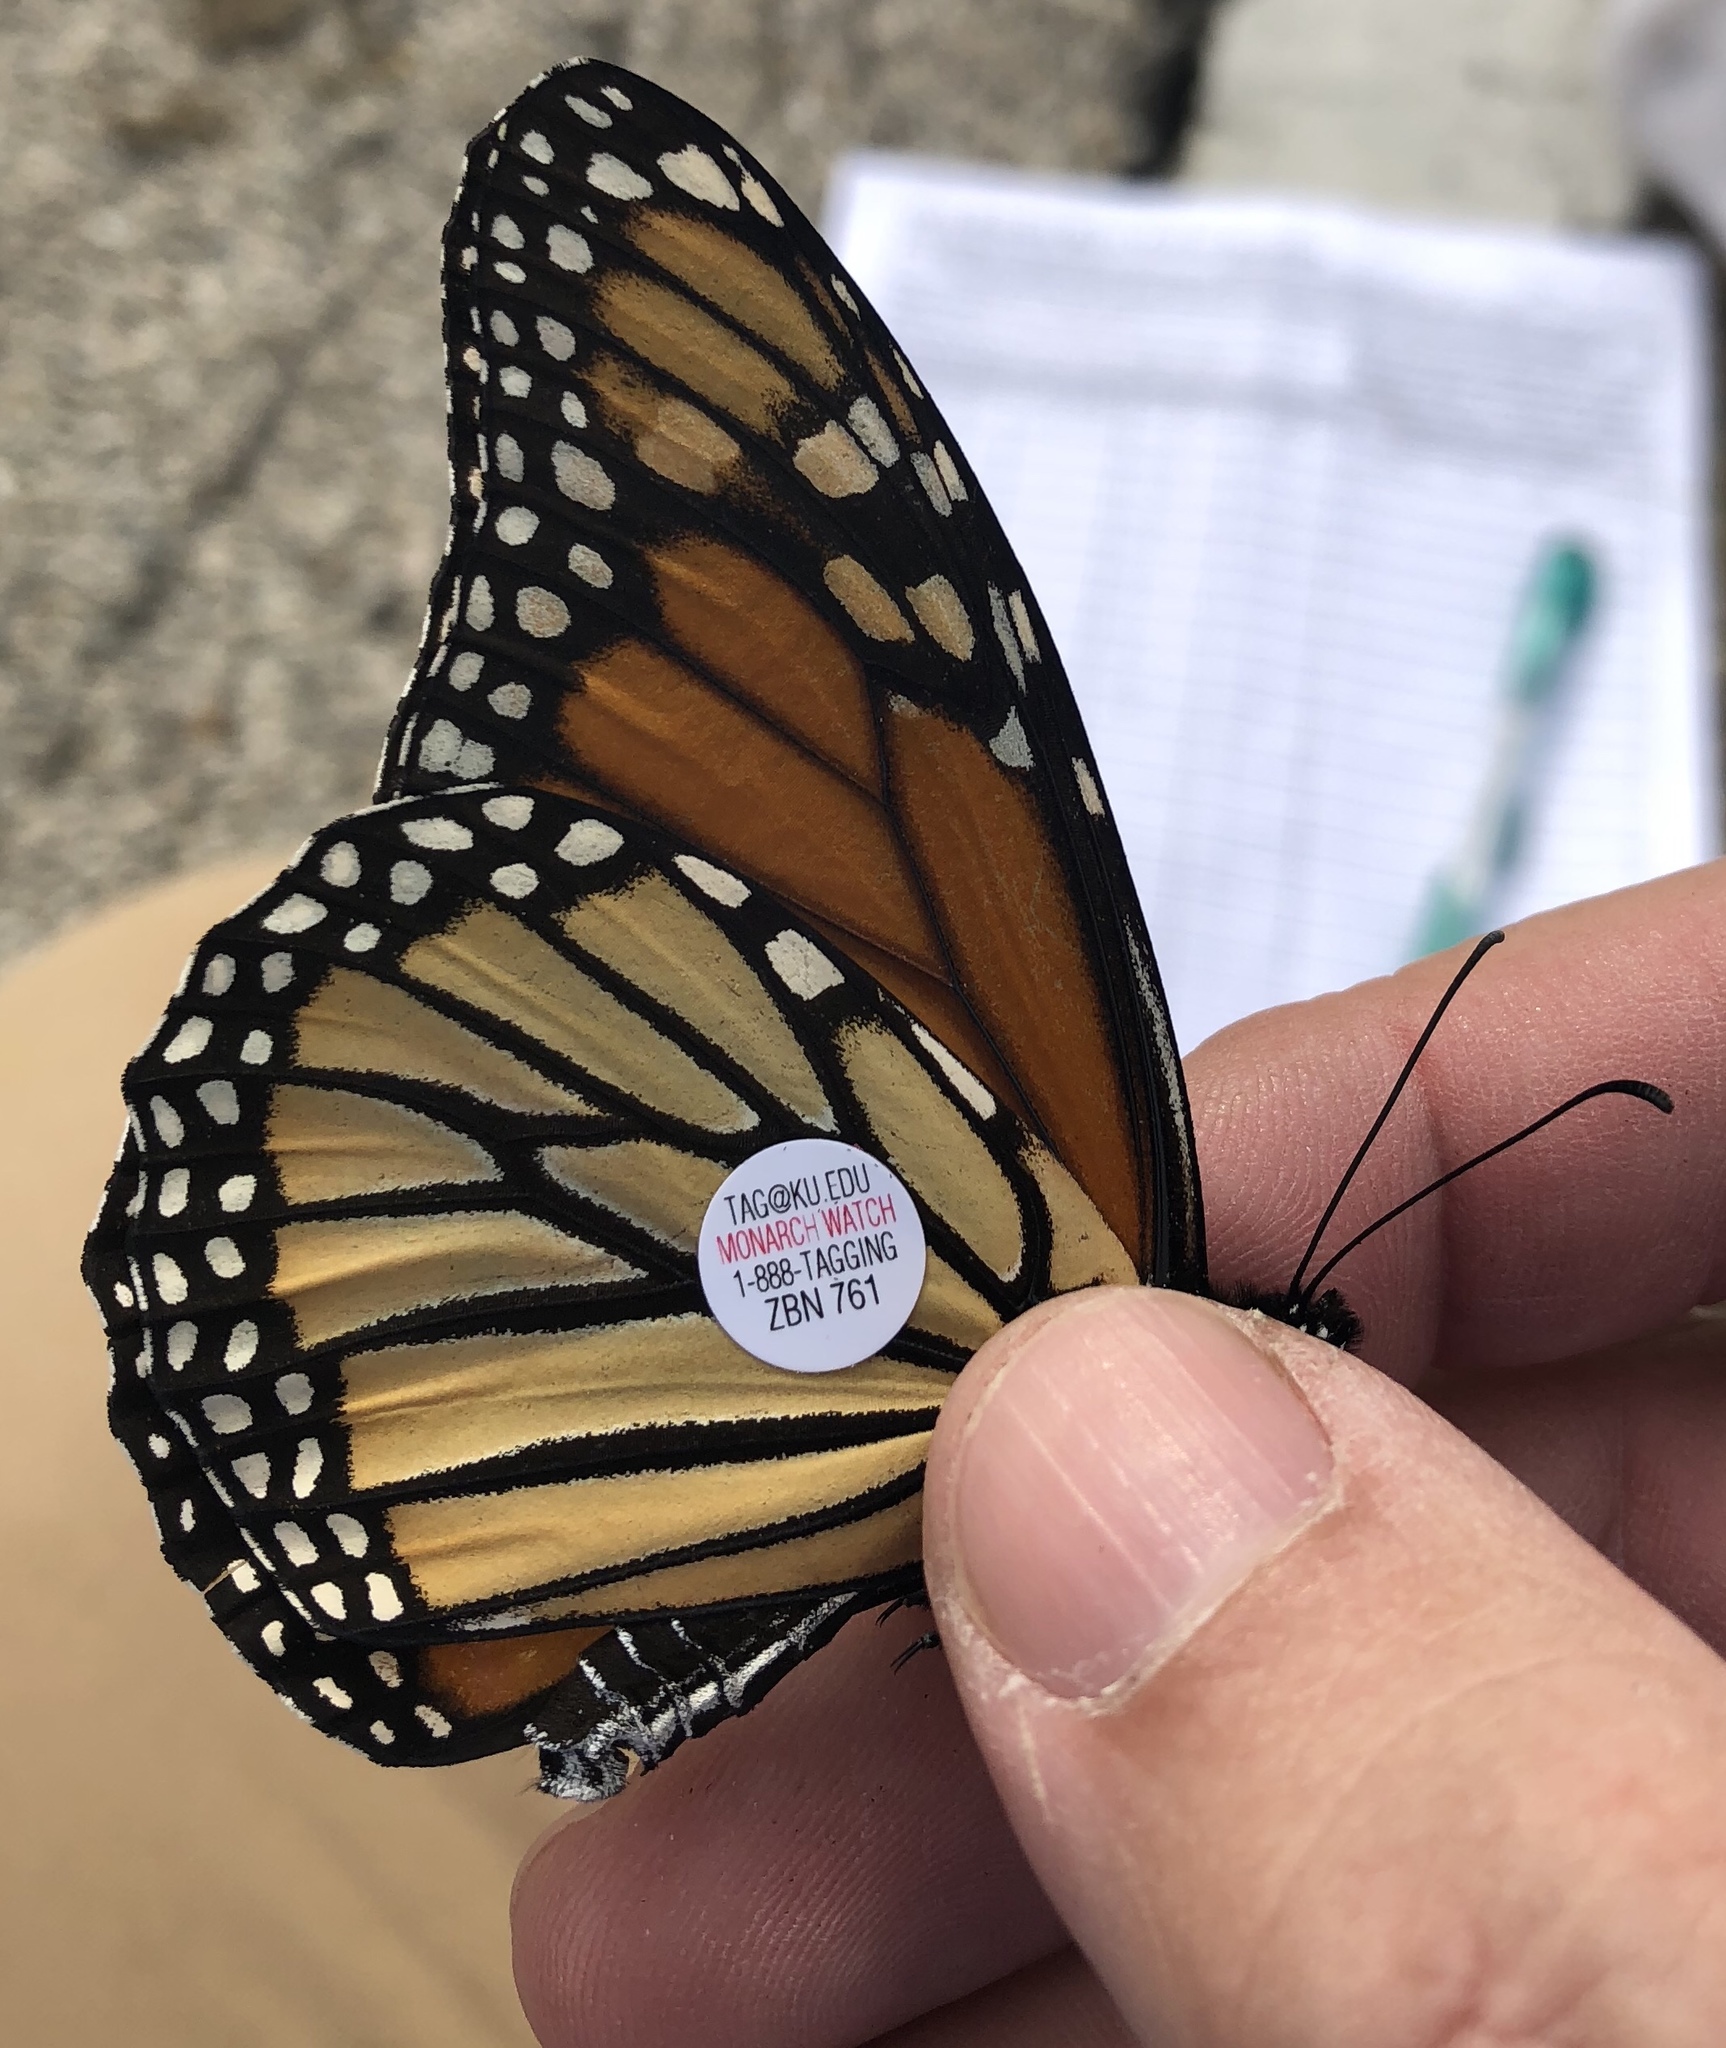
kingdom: Animalia
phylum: Arthropoda
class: Insecta
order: Lepidoptera
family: Nymphalidae
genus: Danaus
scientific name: Danaus plexippus
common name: Monarch
